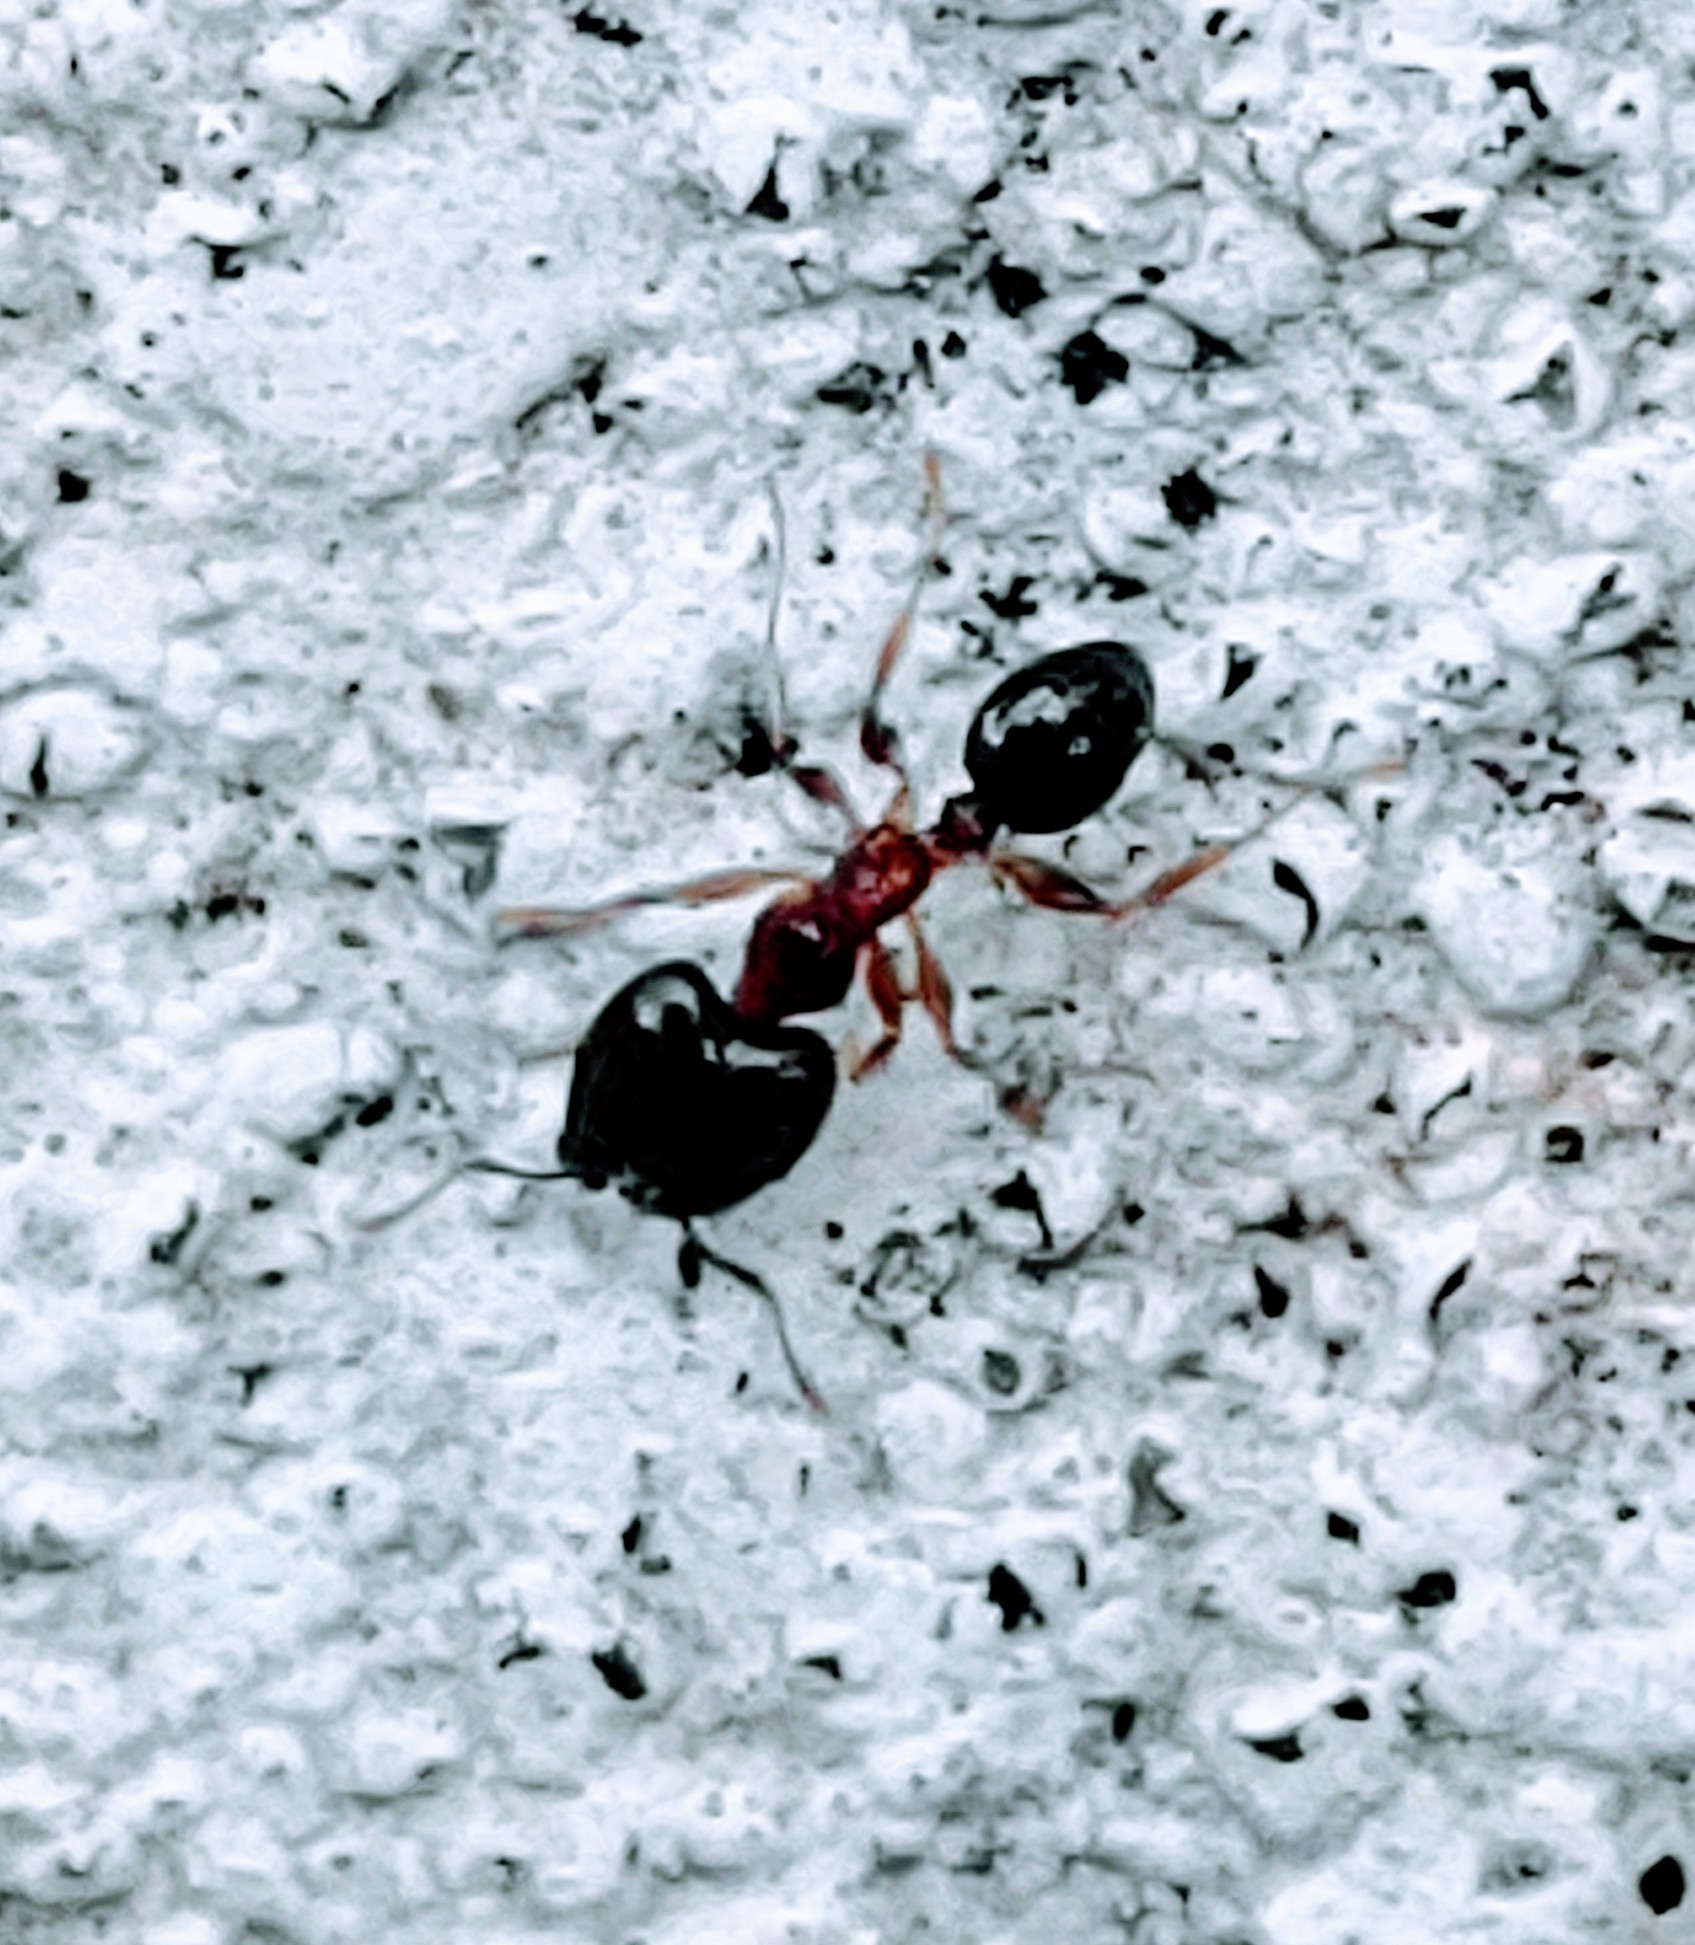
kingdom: Animalia
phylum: Arthropoda
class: Insecta
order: Hymenoptera
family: Formicidae
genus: Pheidole
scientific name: Pheidole megacephala
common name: Bigheaded ant
